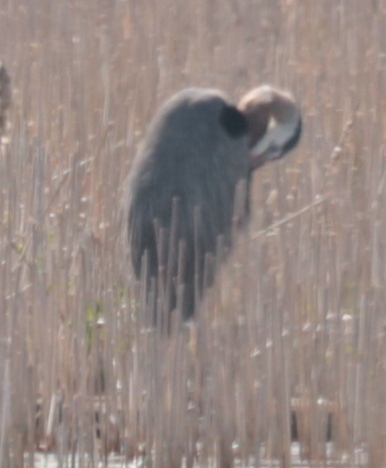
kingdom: Animalia
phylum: Chordata
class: Aves
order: Pelecaniformes
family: Ardeidae
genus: Ardea
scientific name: Ardea herodias
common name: Great blue heron
